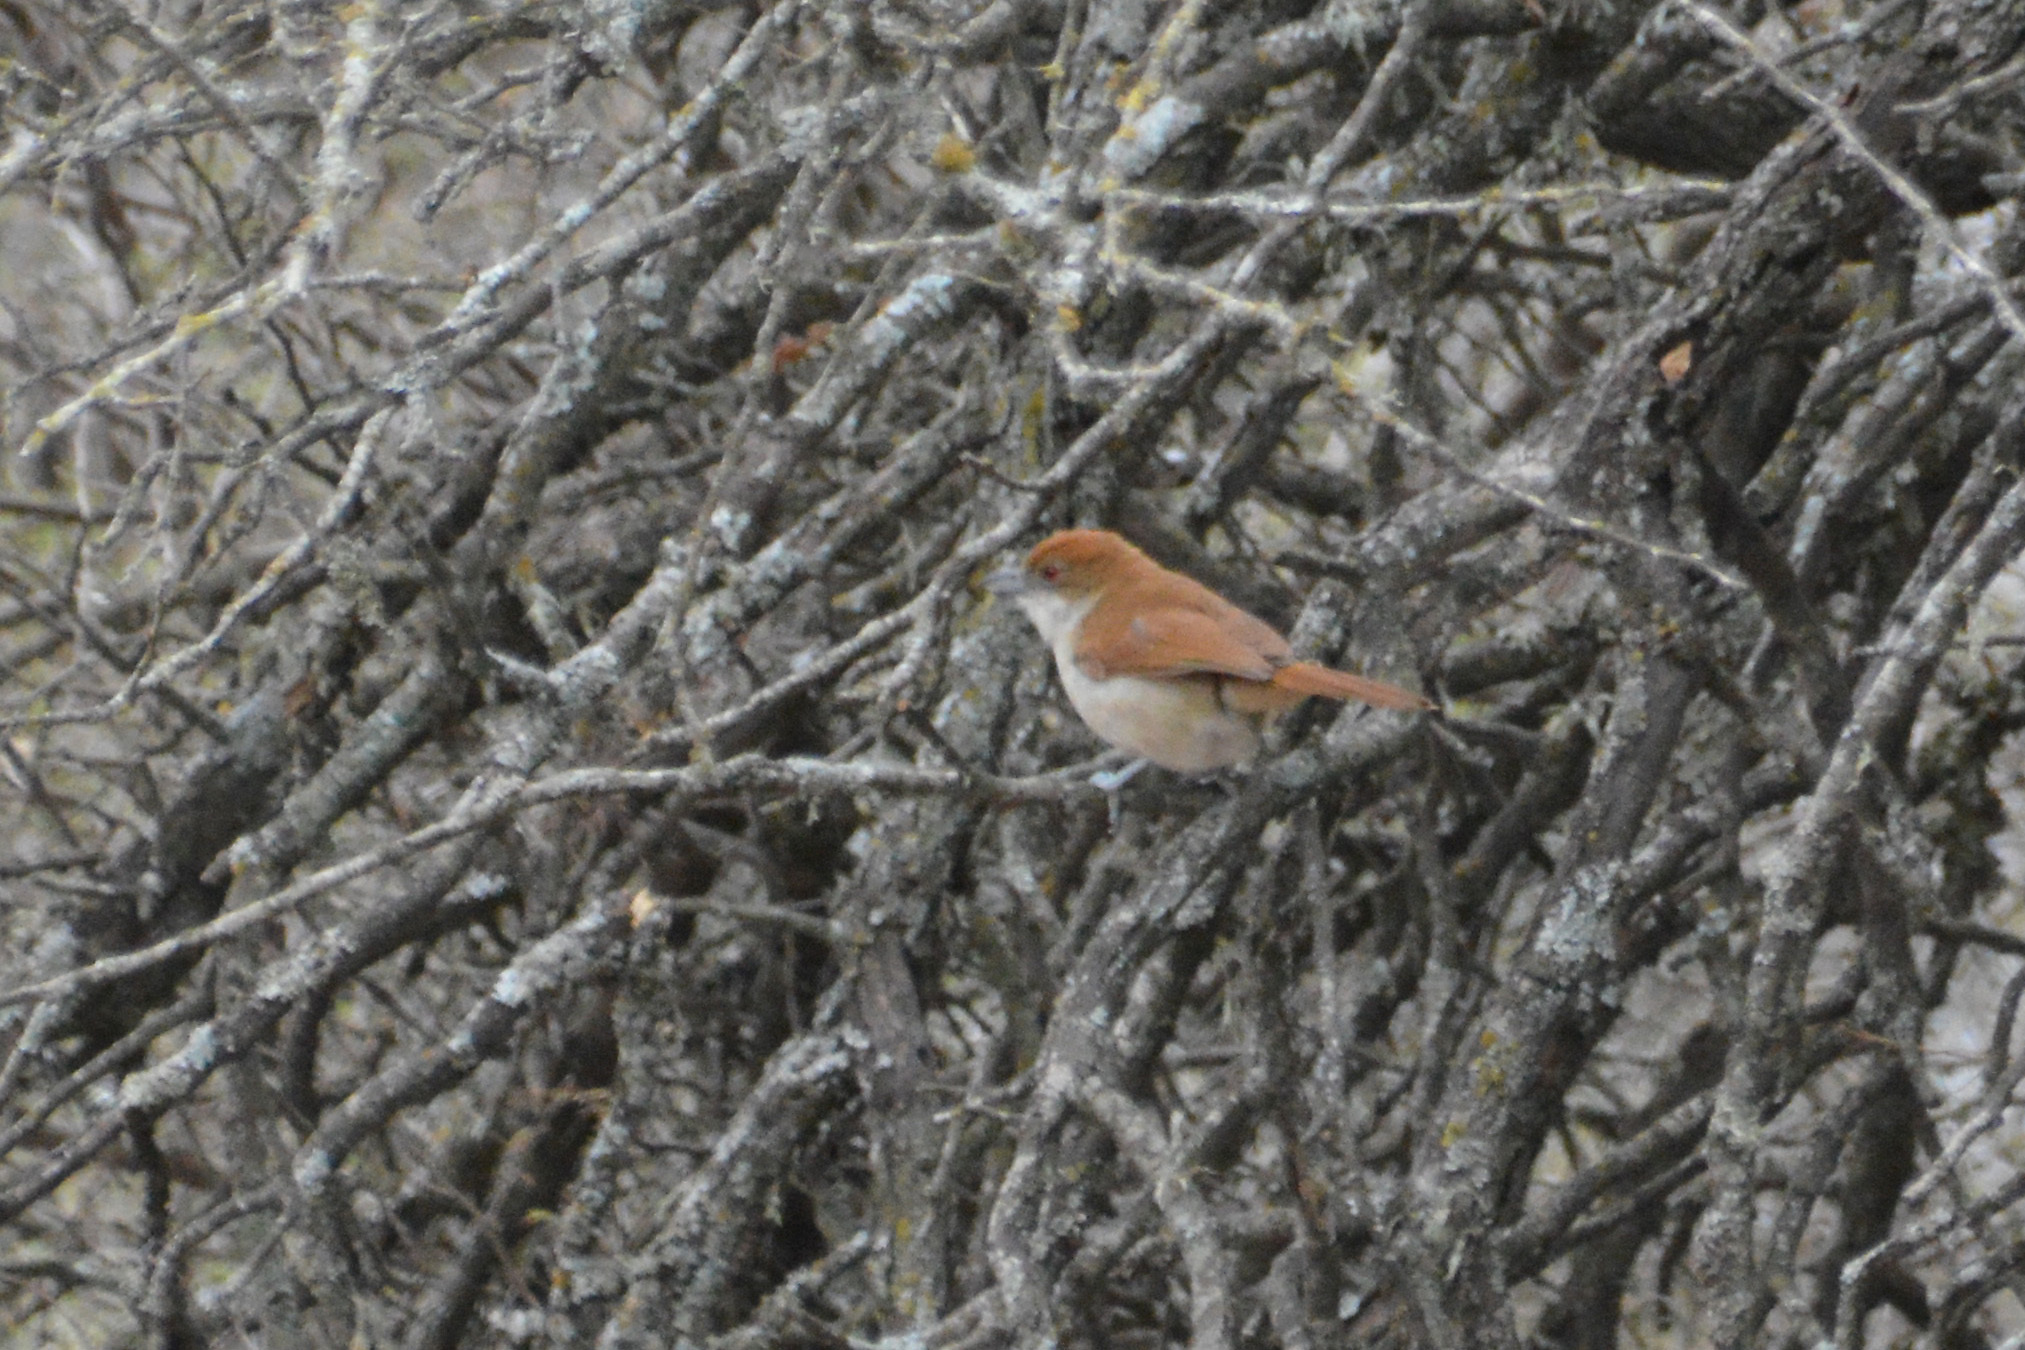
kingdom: Animalia
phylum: Chordata
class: Aves
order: Passeriformes
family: Thamnophilidae
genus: Taraba
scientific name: Taraba major
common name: Great antshrike
